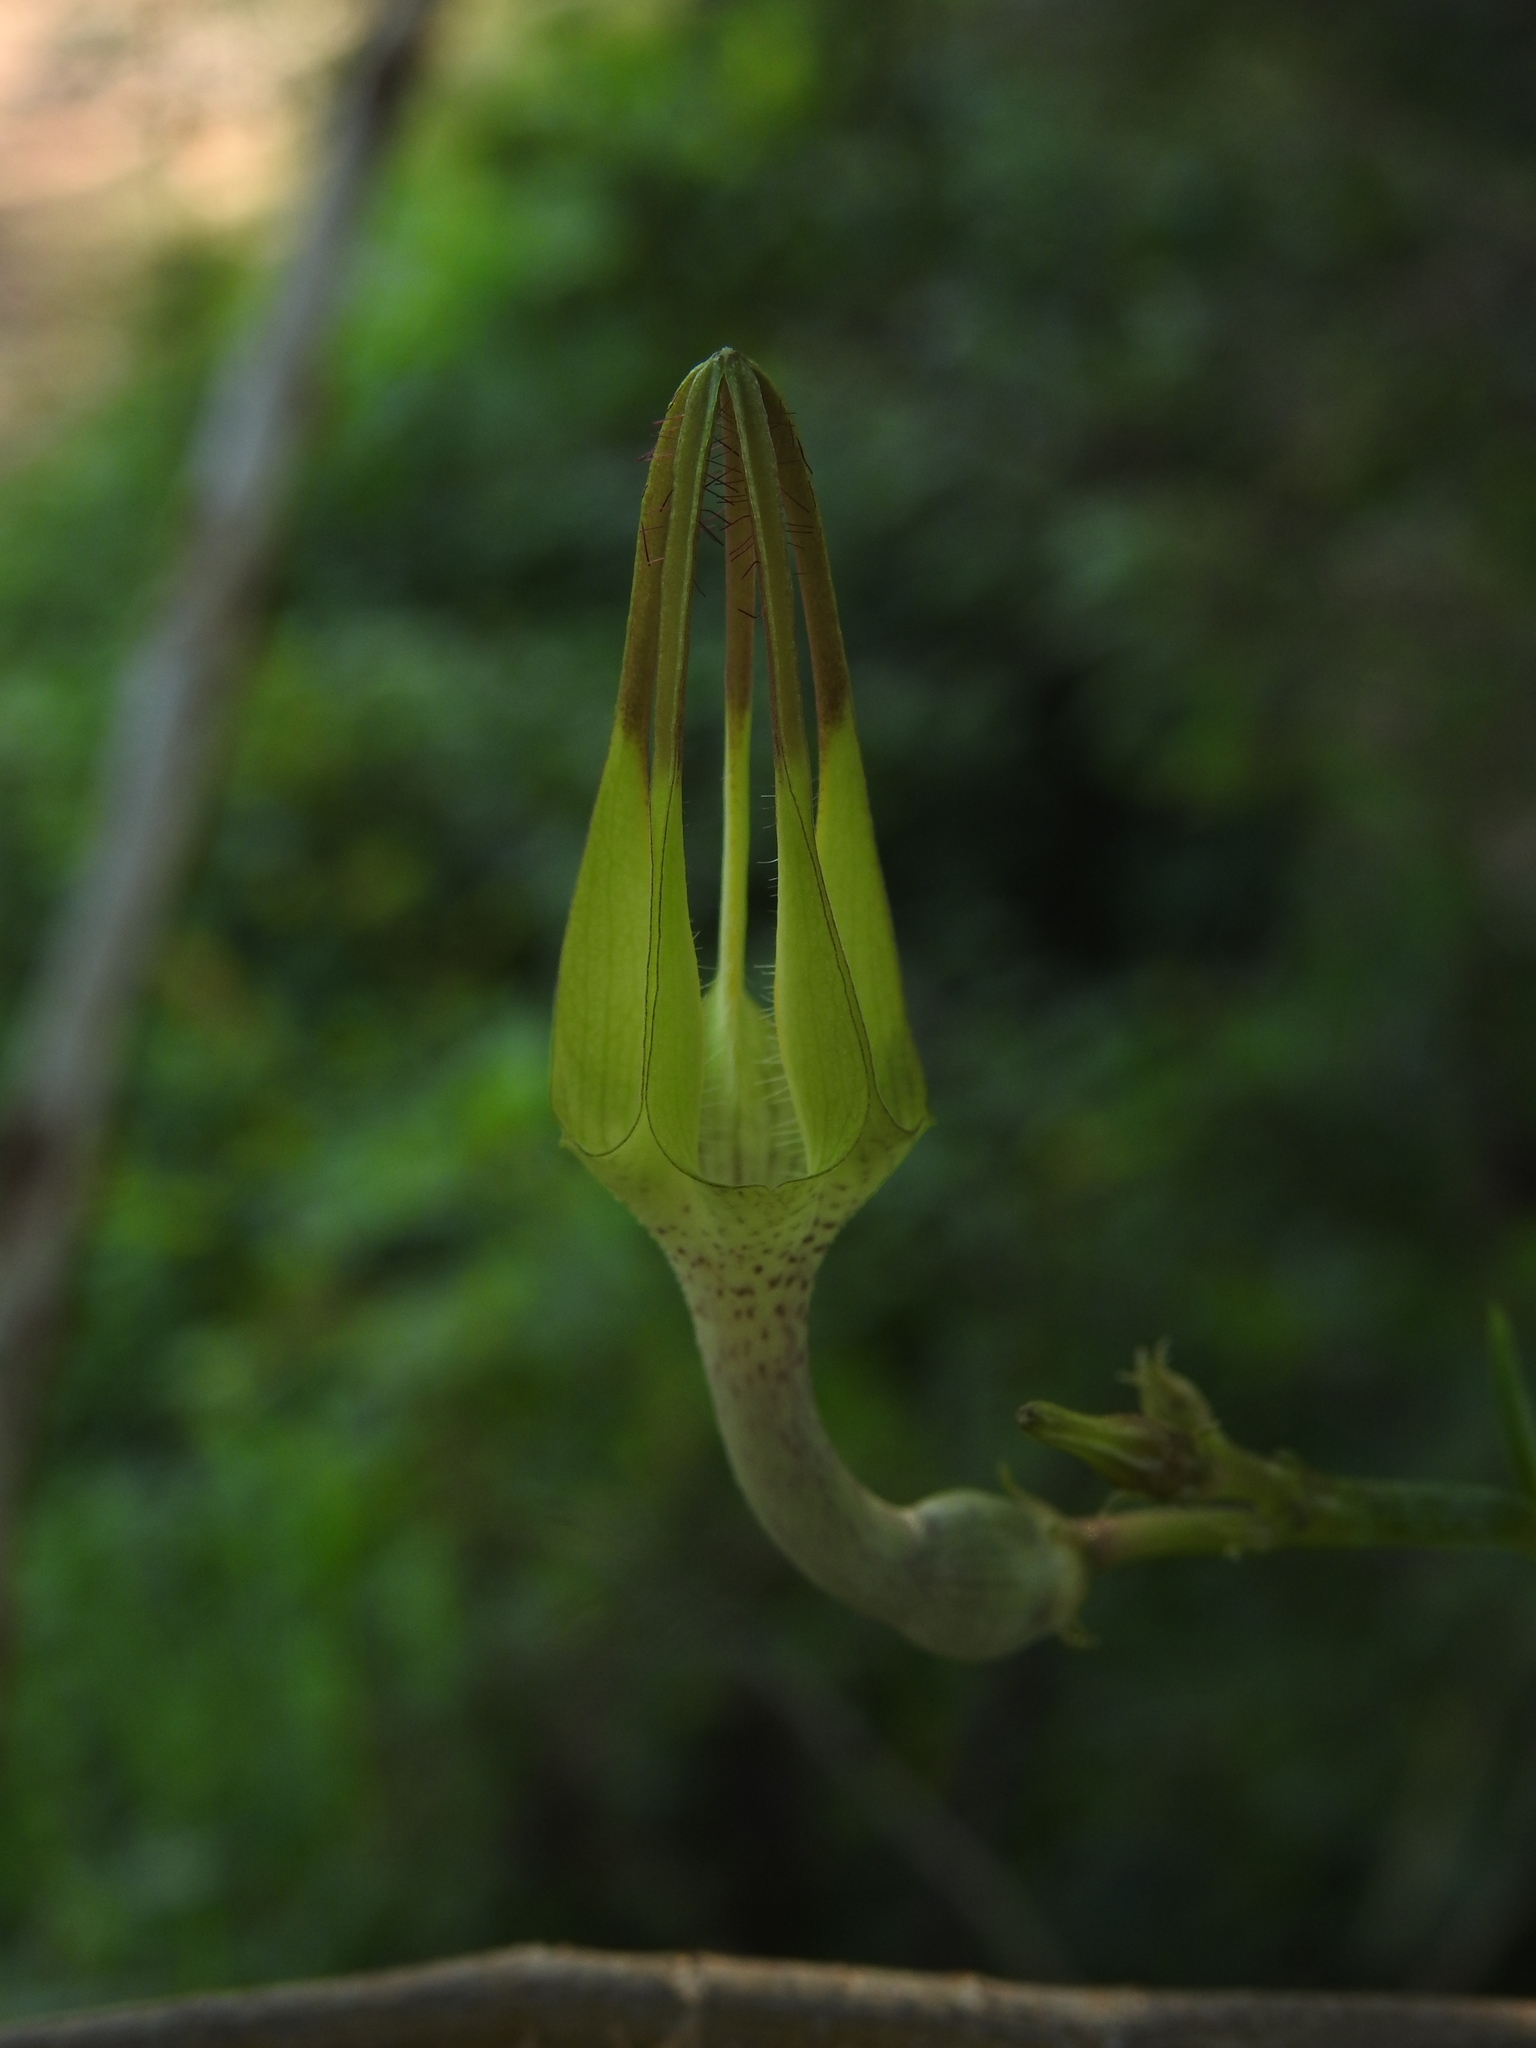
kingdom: Plantae
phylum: Tracheophyta
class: Magnoliopsida
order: Gentianales
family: Apocynaceae
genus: Ceropegia
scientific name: Ceropegia juncea
